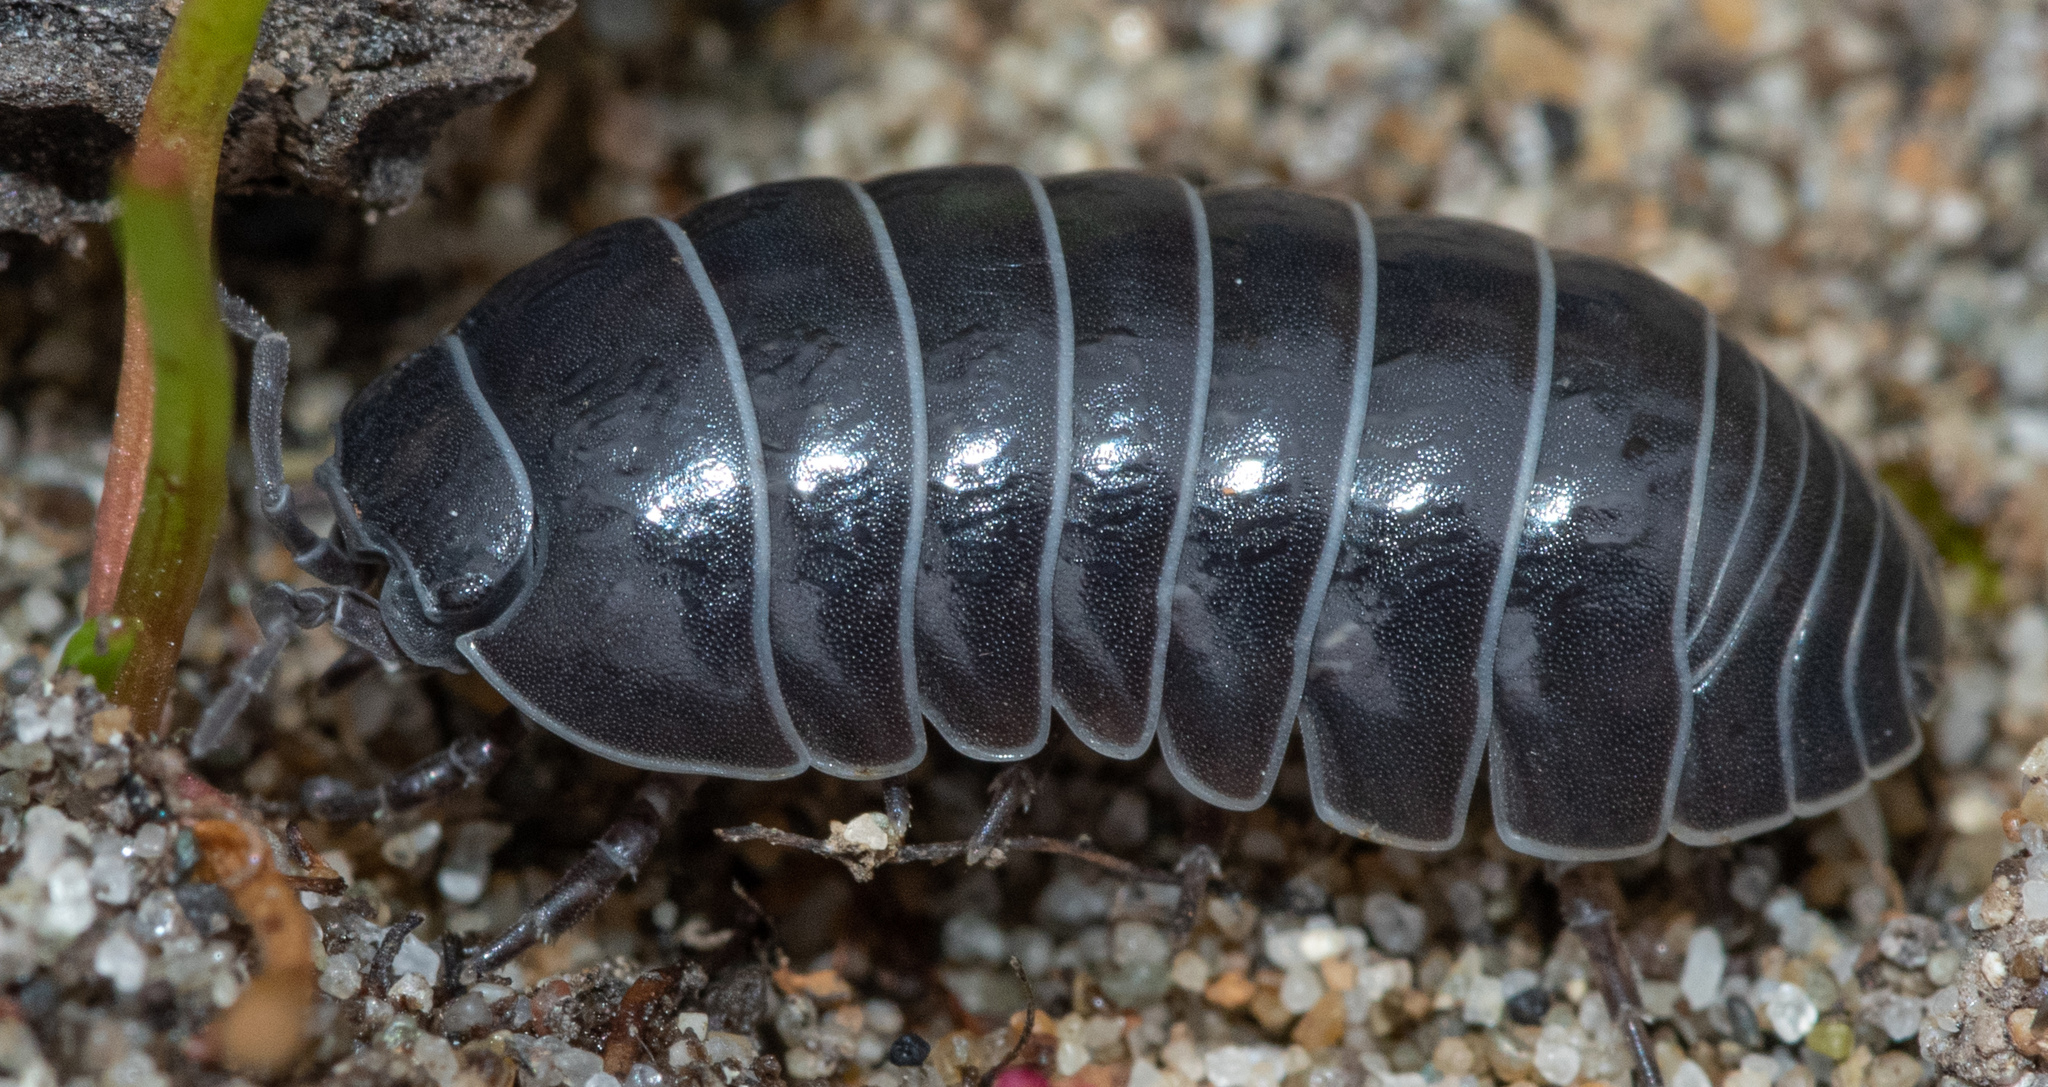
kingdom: Animalia
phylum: Arthropoda
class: Malacostraca
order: Isopoda
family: Armadillidiidae
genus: Armadillidium
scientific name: Armadillidium vulgare
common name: Common pill woodlouse
